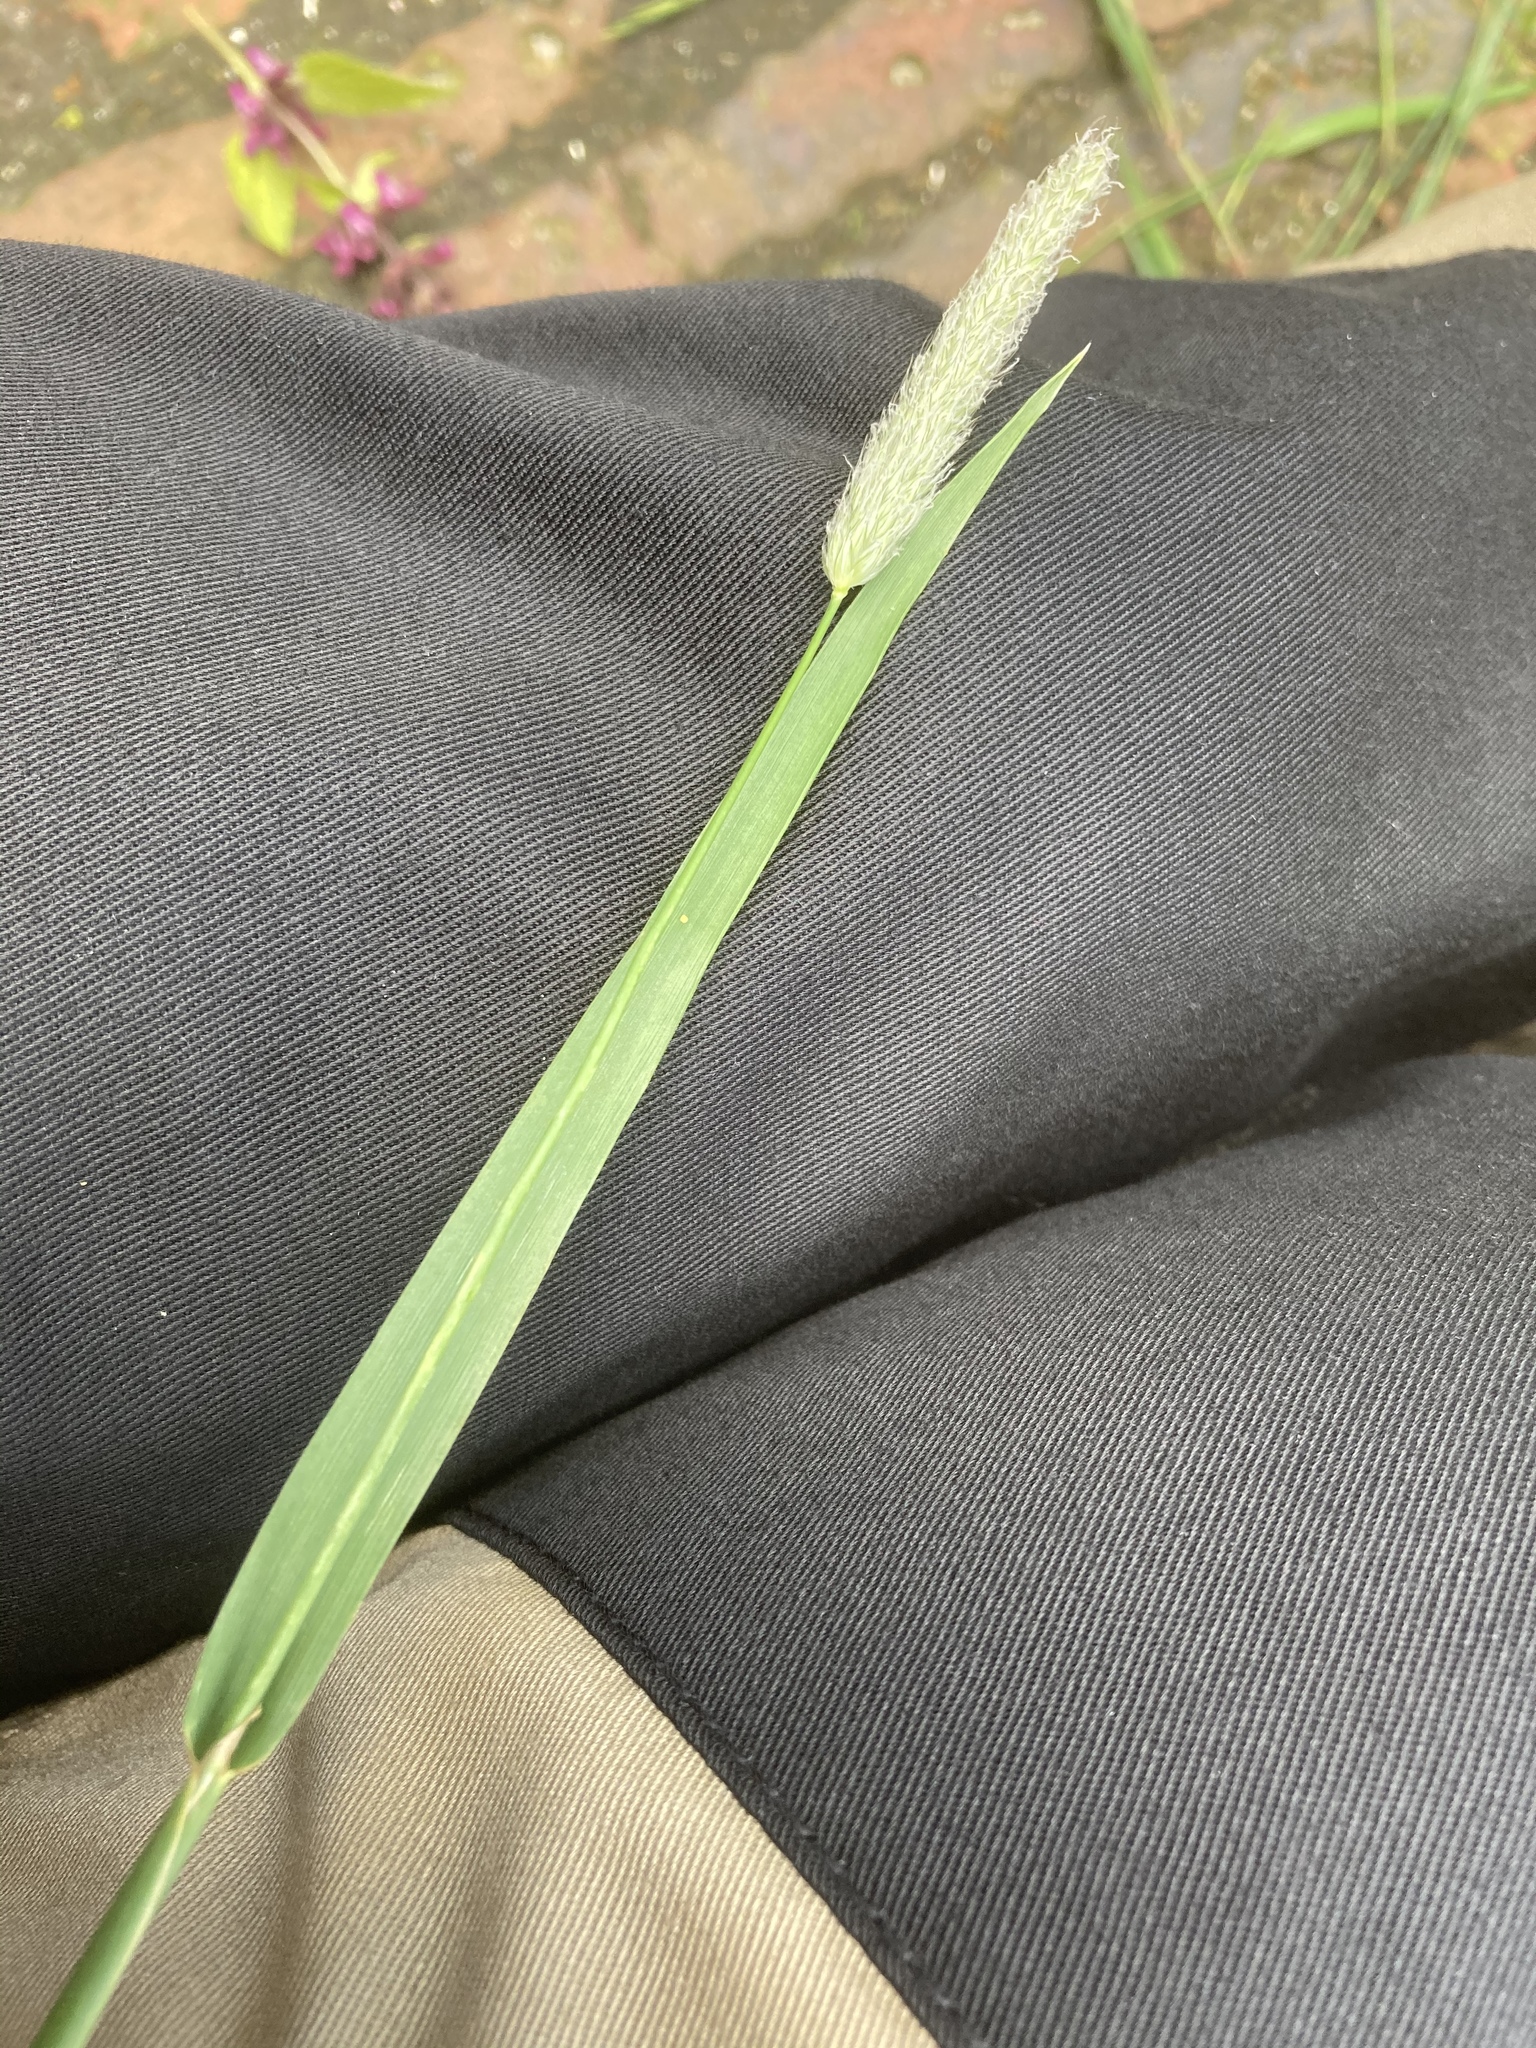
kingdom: Plantae
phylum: Tracheophyta
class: Liliopsida
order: Poales
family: Poaceae
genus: Alopecurus
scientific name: Alopecurus pratensis
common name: Meadow foxtail
